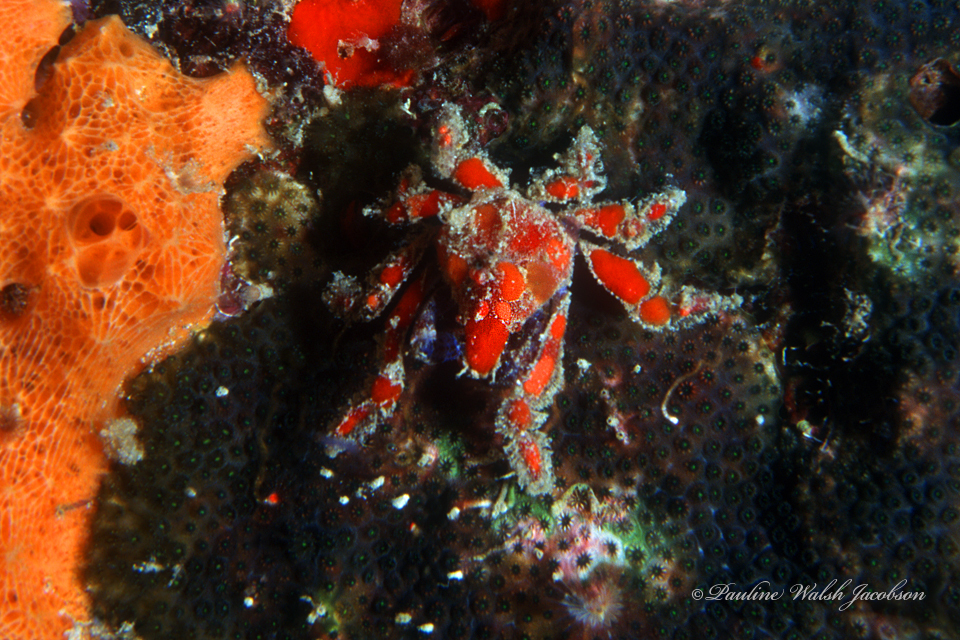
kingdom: Animalia
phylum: Arthropoda
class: Malacostraca
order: Decapoda
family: Epialtidae
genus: Pelia
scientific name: Pelia mutica
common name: Cryptic teardrop crab
